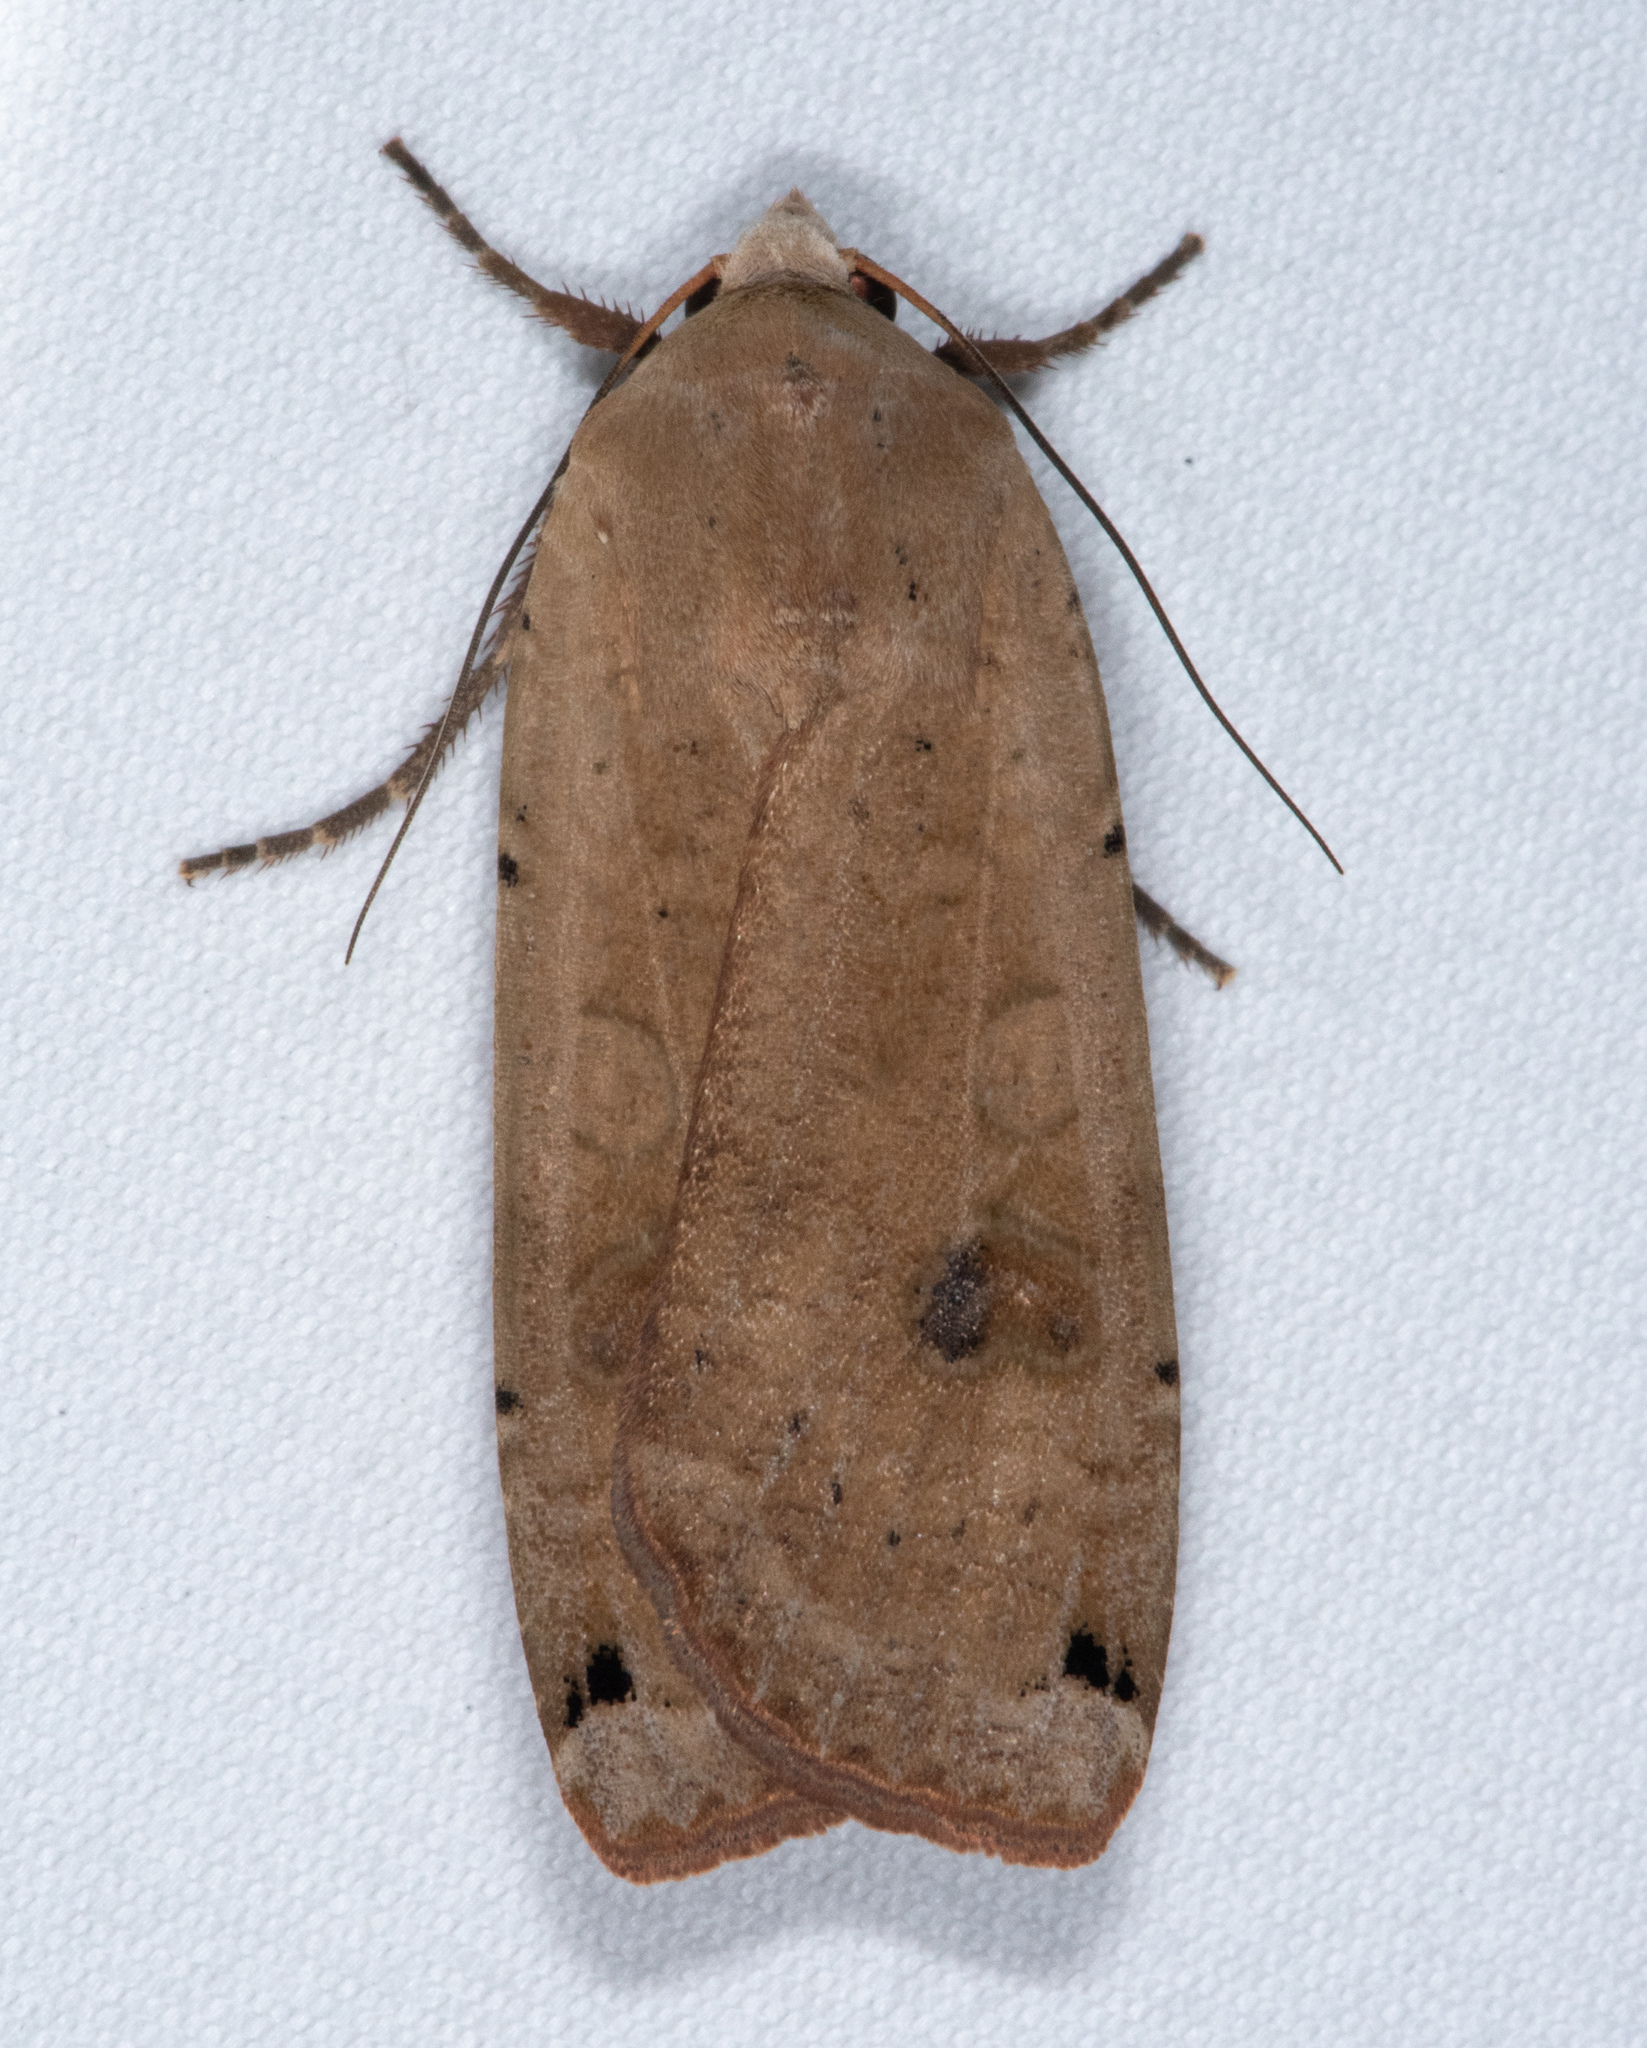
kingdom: Animalia
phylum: Arthropoda
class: Insecta
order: Lepidoptera
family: Noctuidae
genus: Noctua
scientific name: Noctua pronuba
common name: Large yellow underwing
